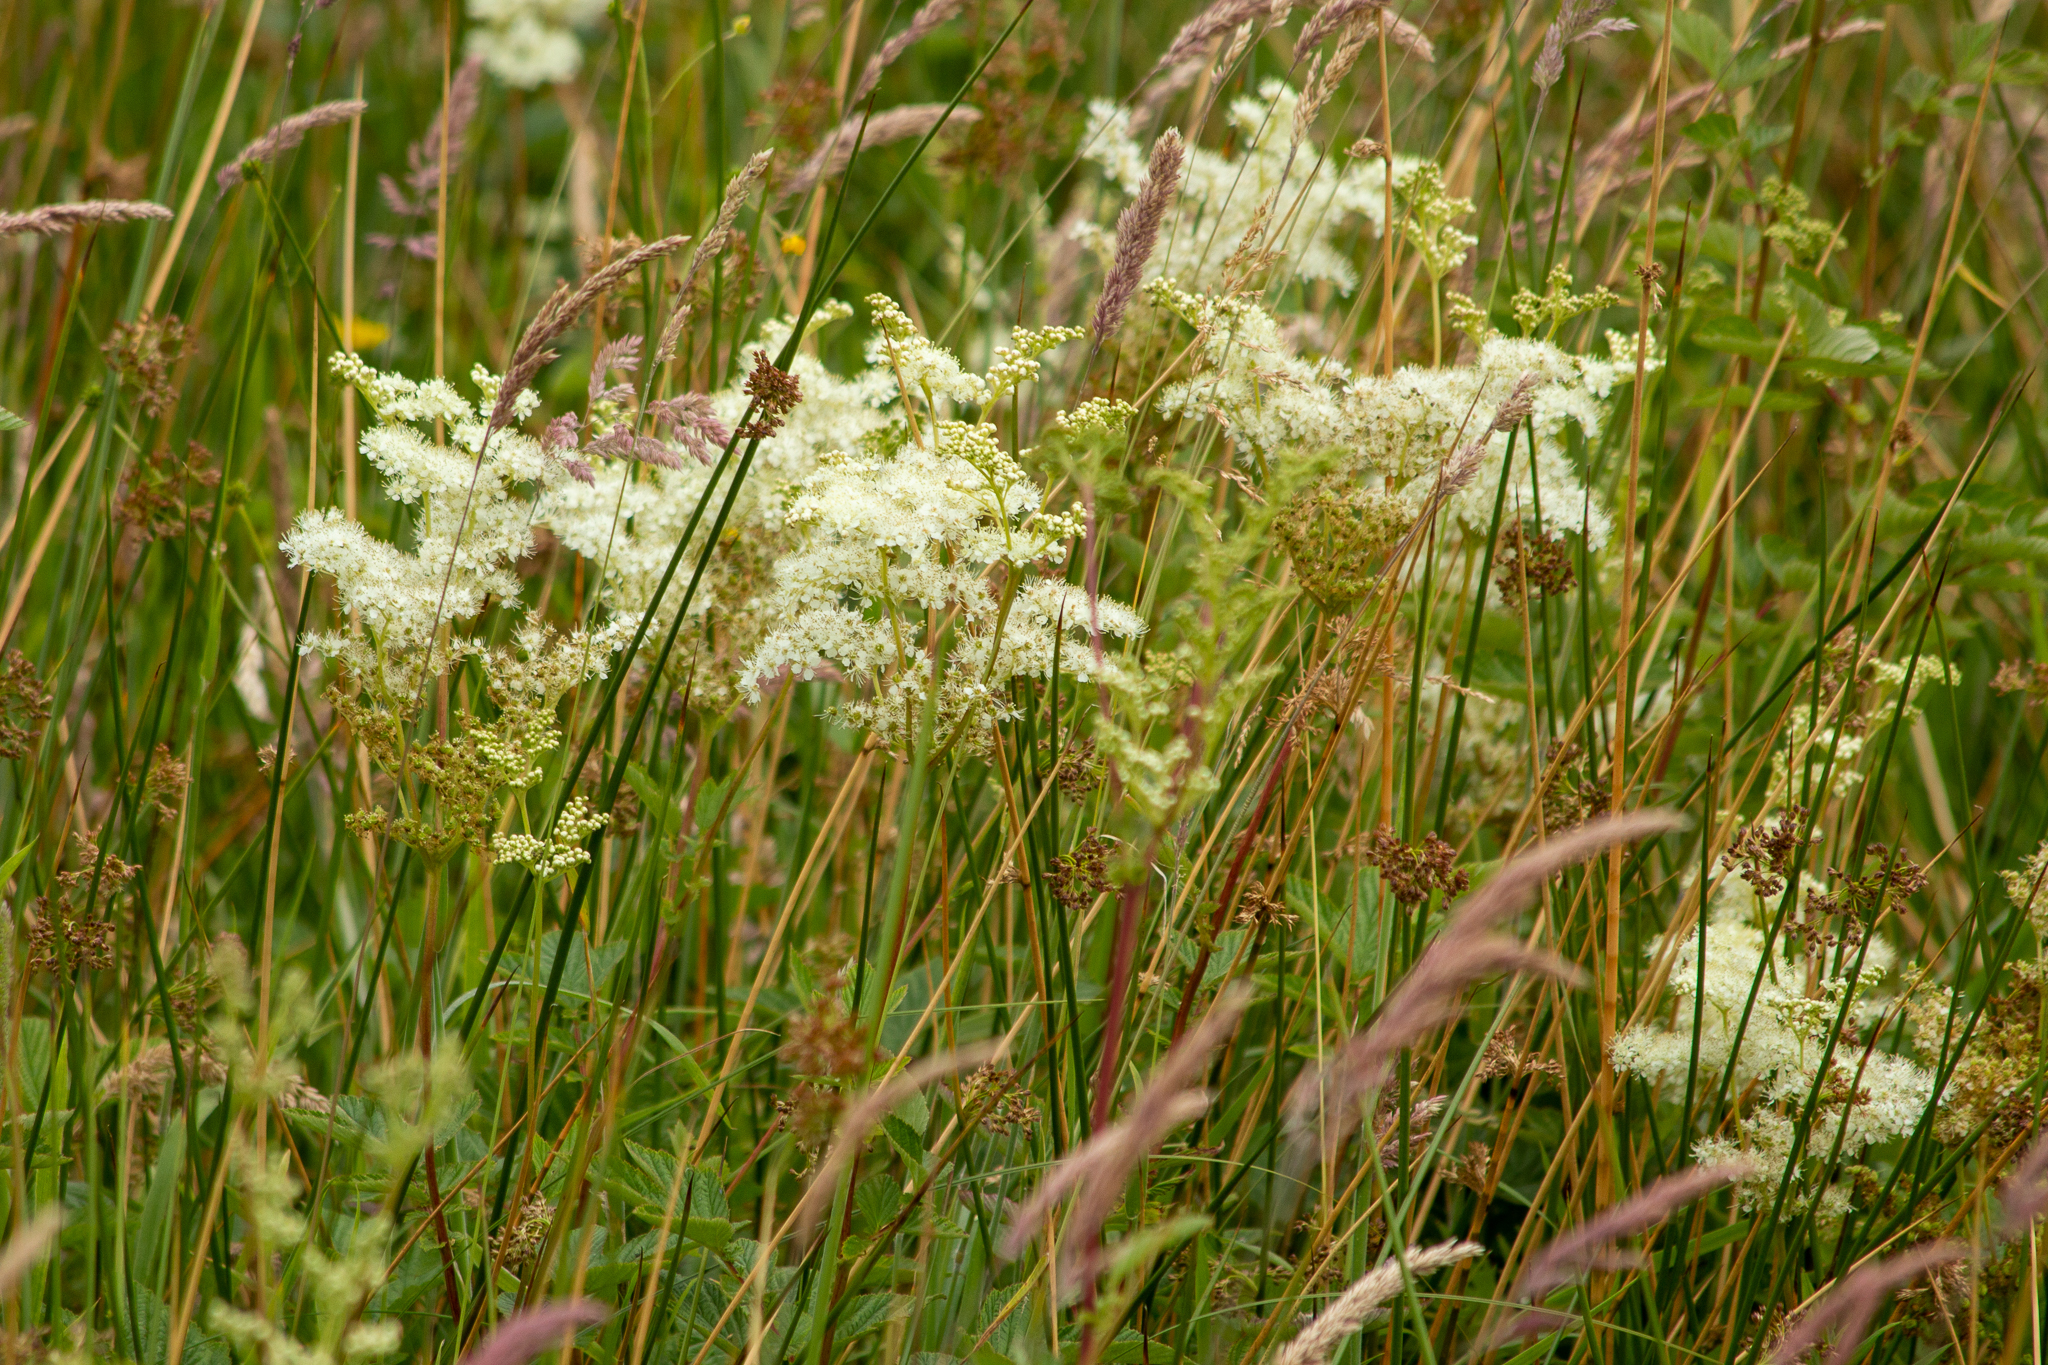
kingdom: Plantae
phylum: Tracheophyta
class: Magnoliopsida
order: Rosales
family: Rosaceae
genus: Filipendula
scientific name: Filipendula ulmaria
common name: Meadowsweet
